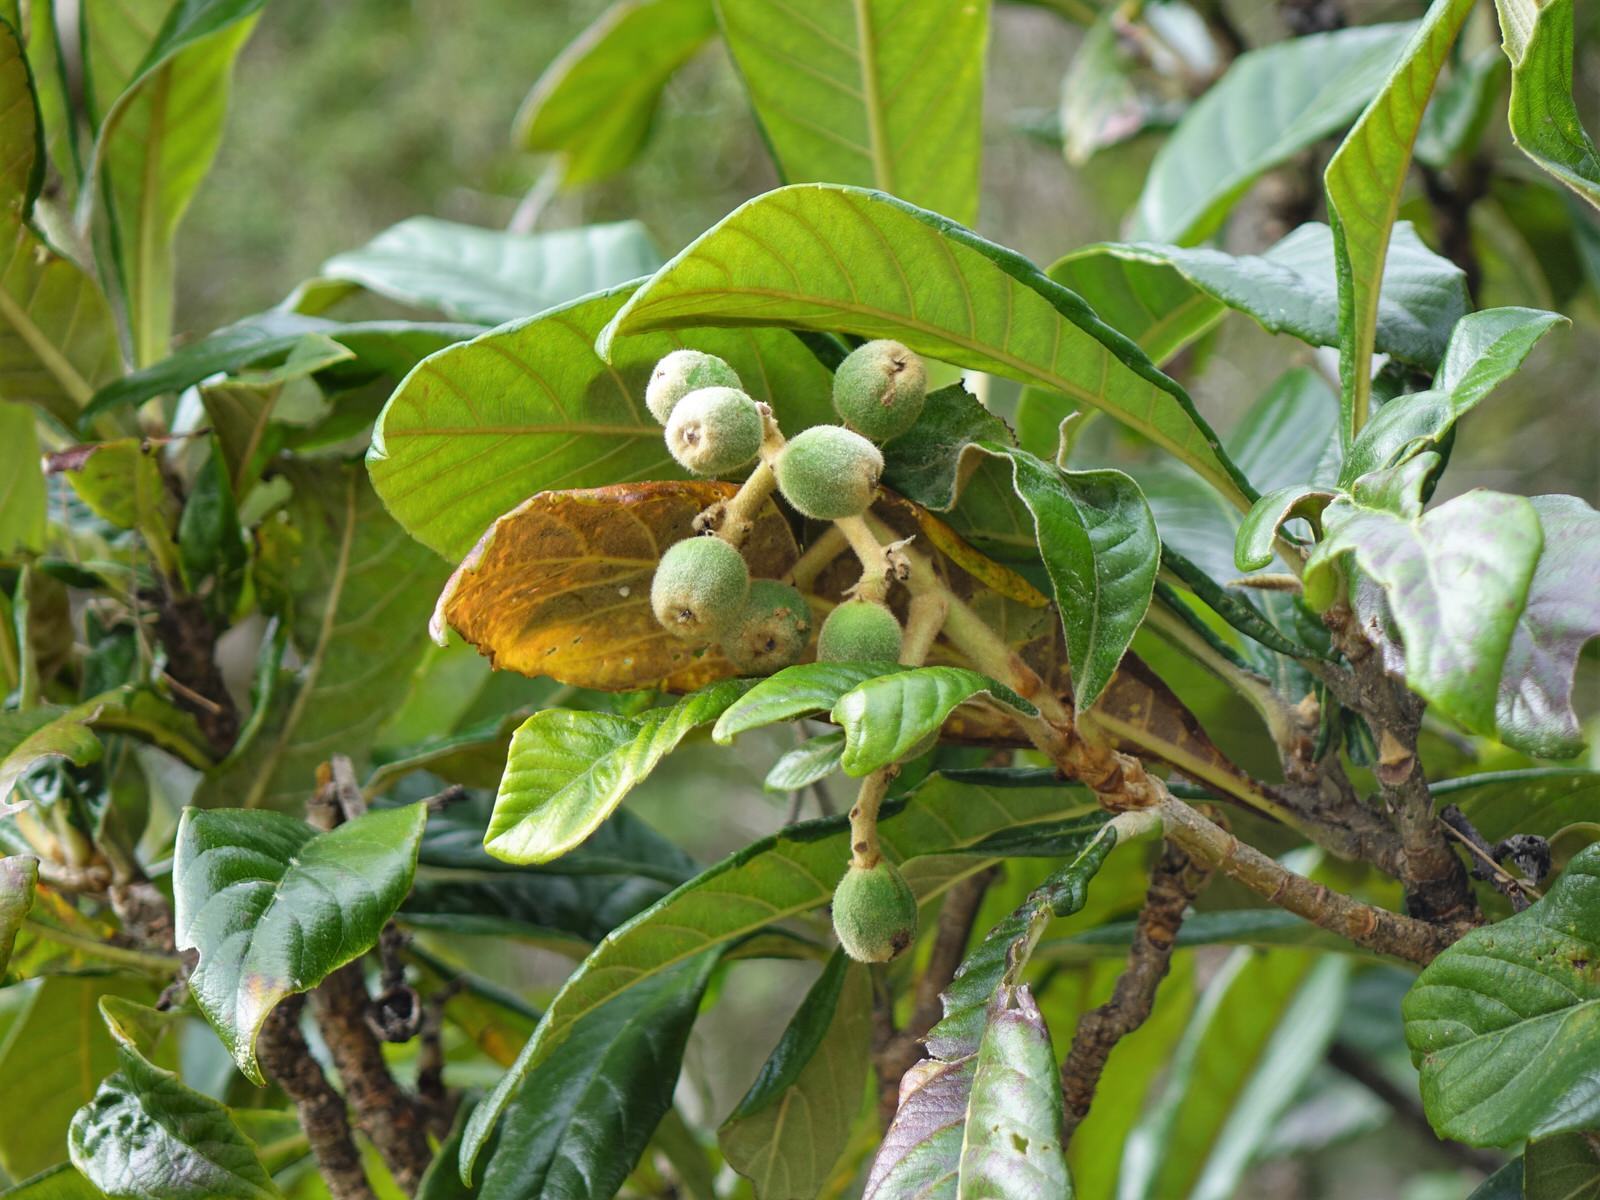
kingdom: Plantae
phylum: Tracheophyta
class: Magnoliopsida
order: Rosales
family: Rosaceae
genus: Rhaphiolepis
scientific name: Rhaphiolepis bibas
